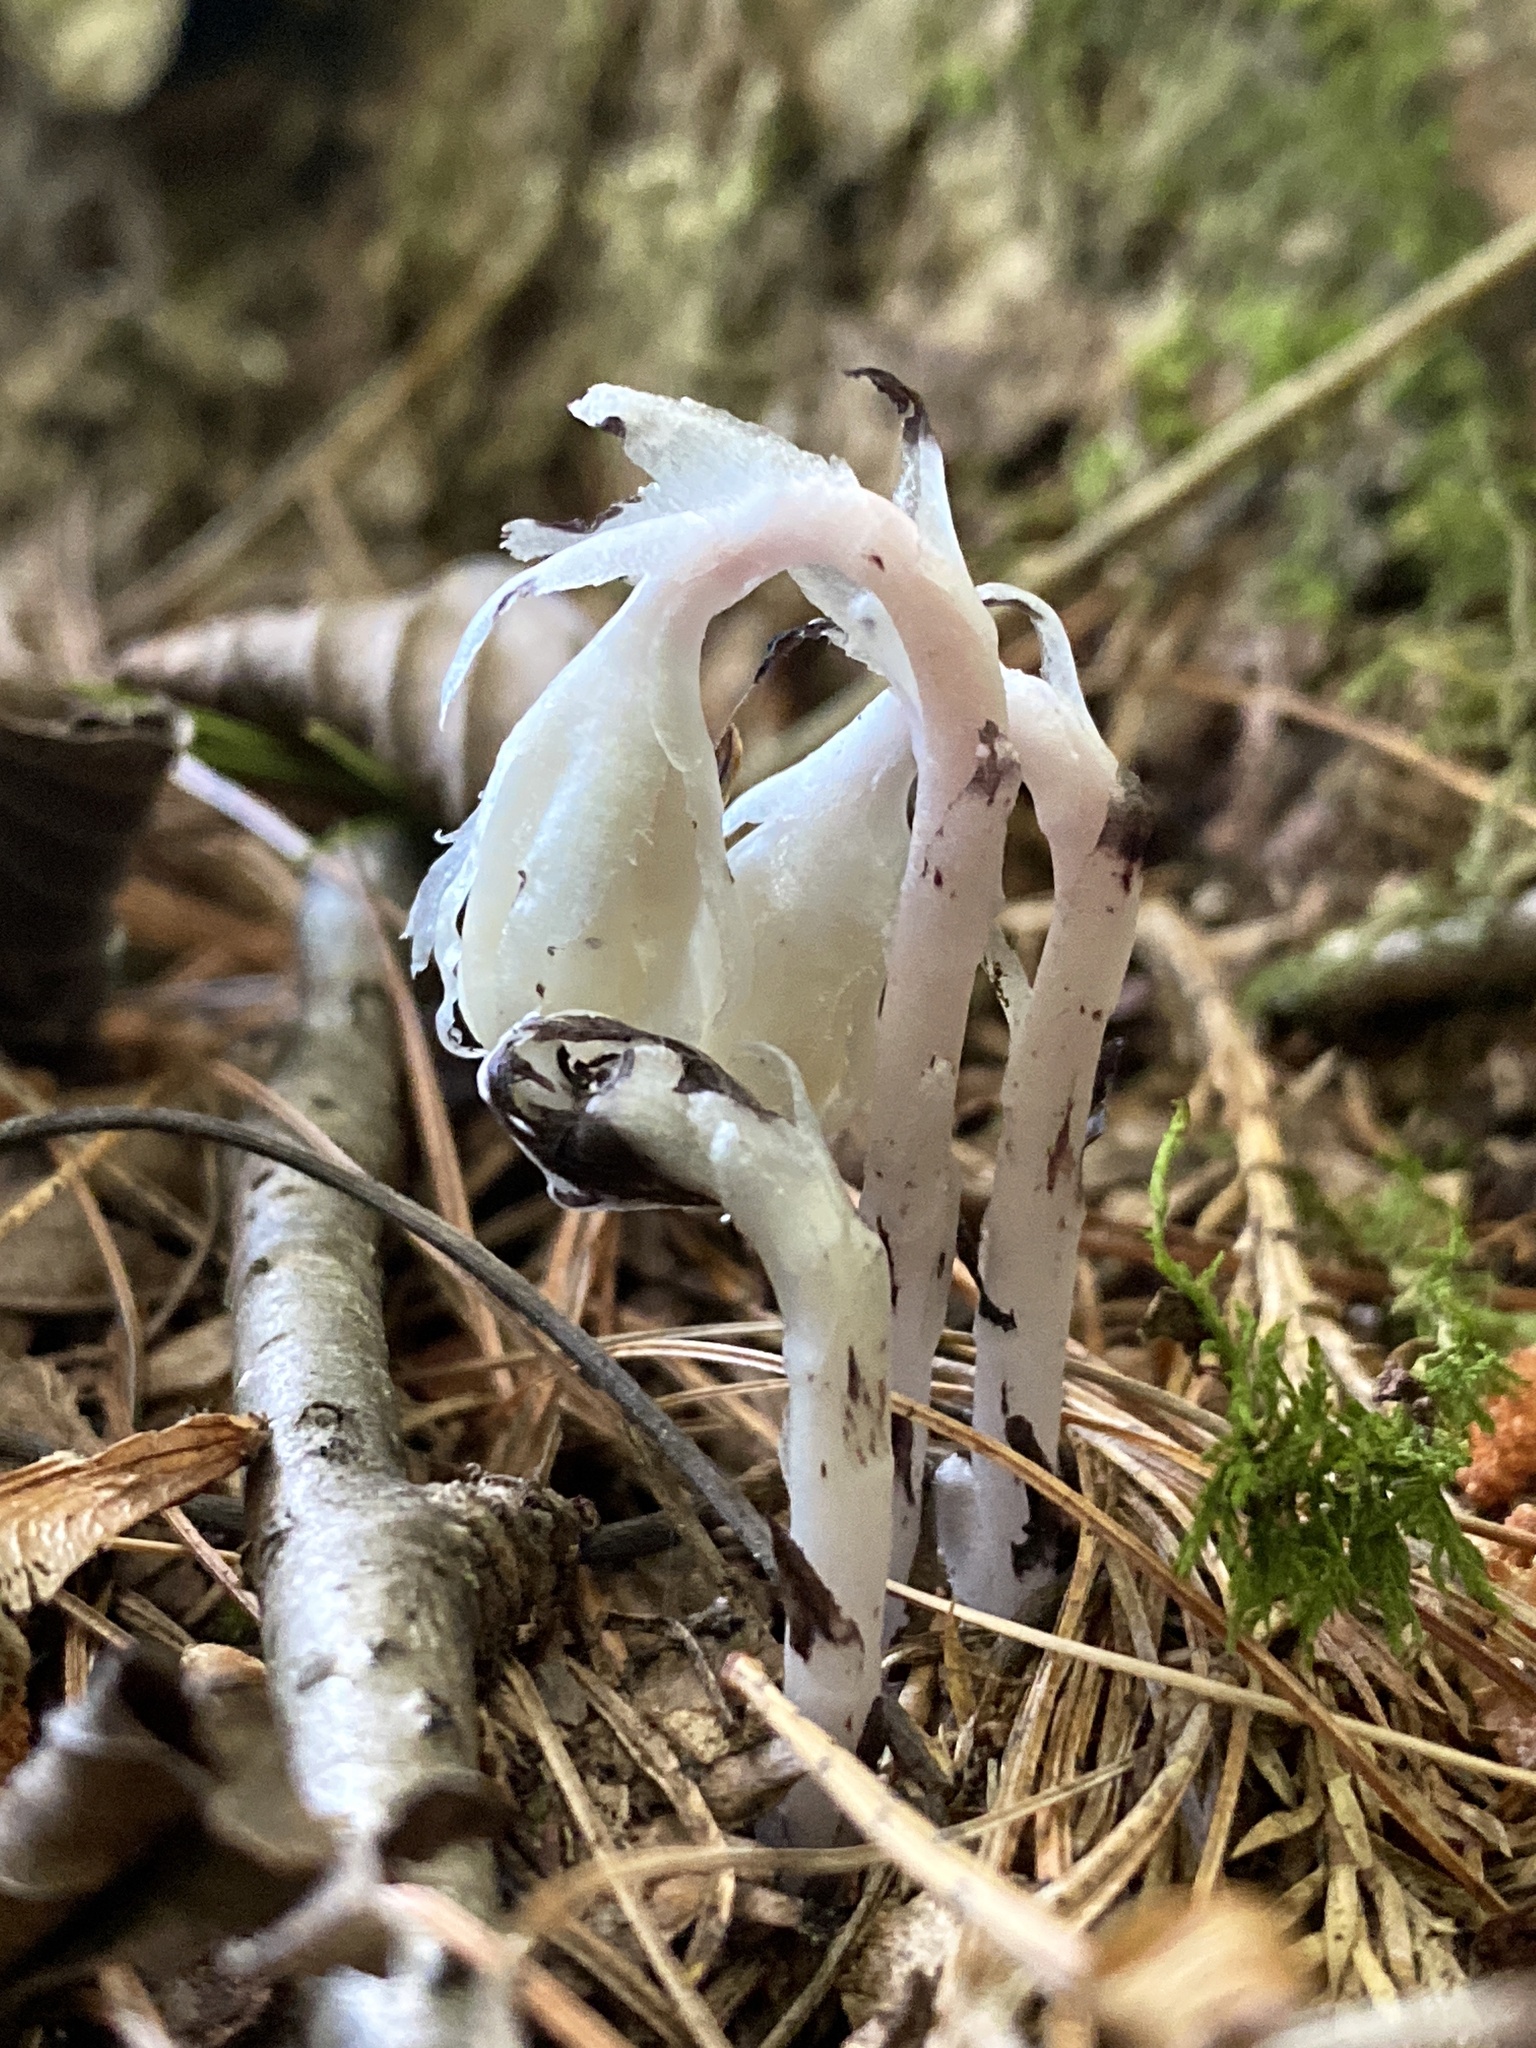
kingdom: Plantae
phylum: Tracheophyta
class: Magnoliopsida
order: Ericales
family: Ericaceae
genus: Monotropa
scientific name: Monotropa uniflora
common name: Convulsion root
